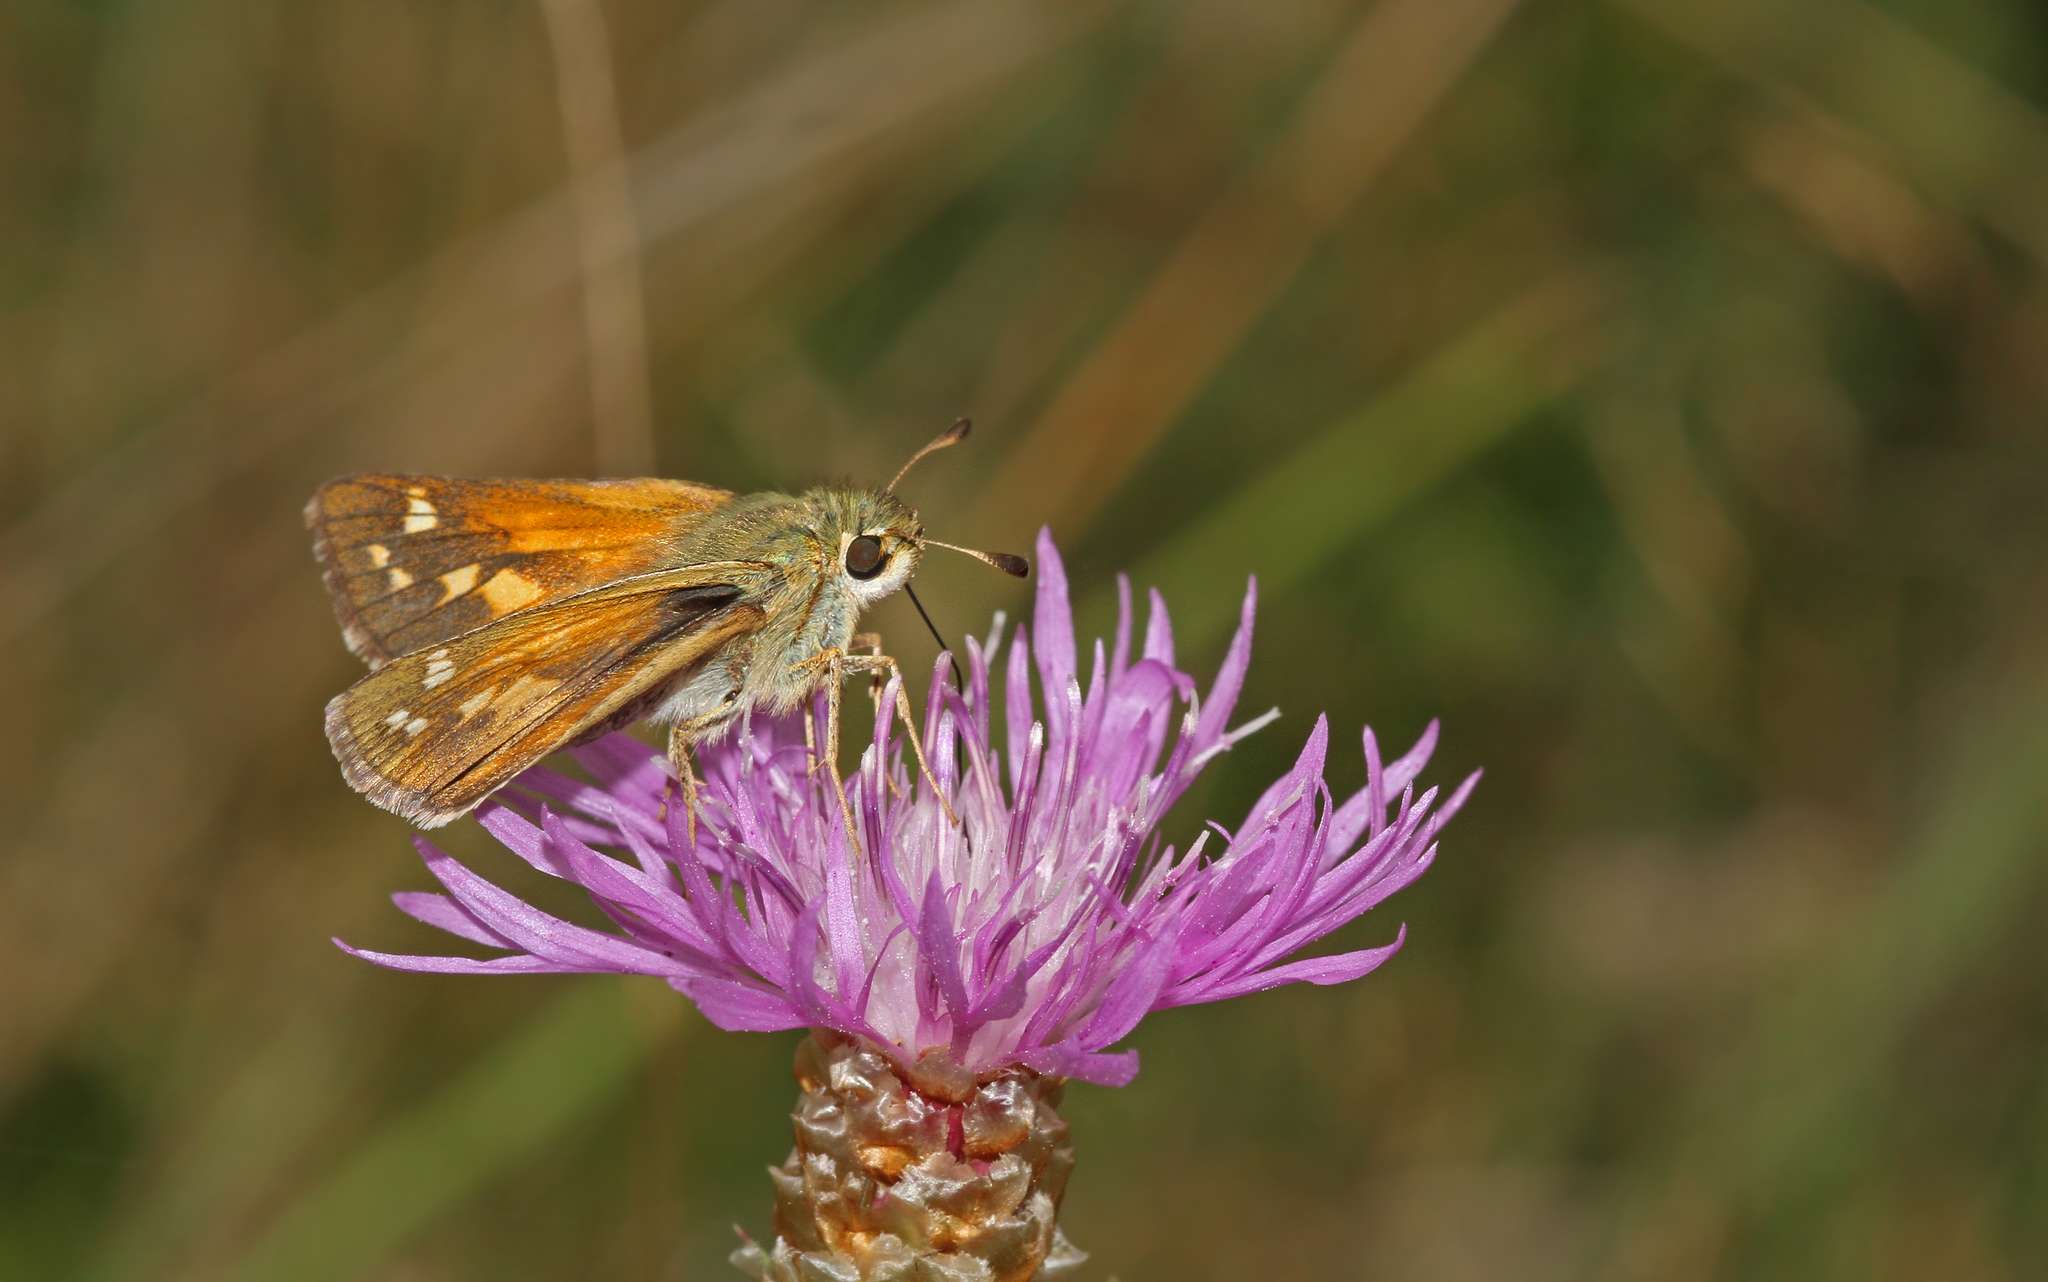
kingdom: Animalia
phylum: Arthropoda
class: Insecta
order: Lepidoptera
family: Hesperiidae
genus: Hesperia
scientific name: Hesperia comma
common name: Common branded skipper
